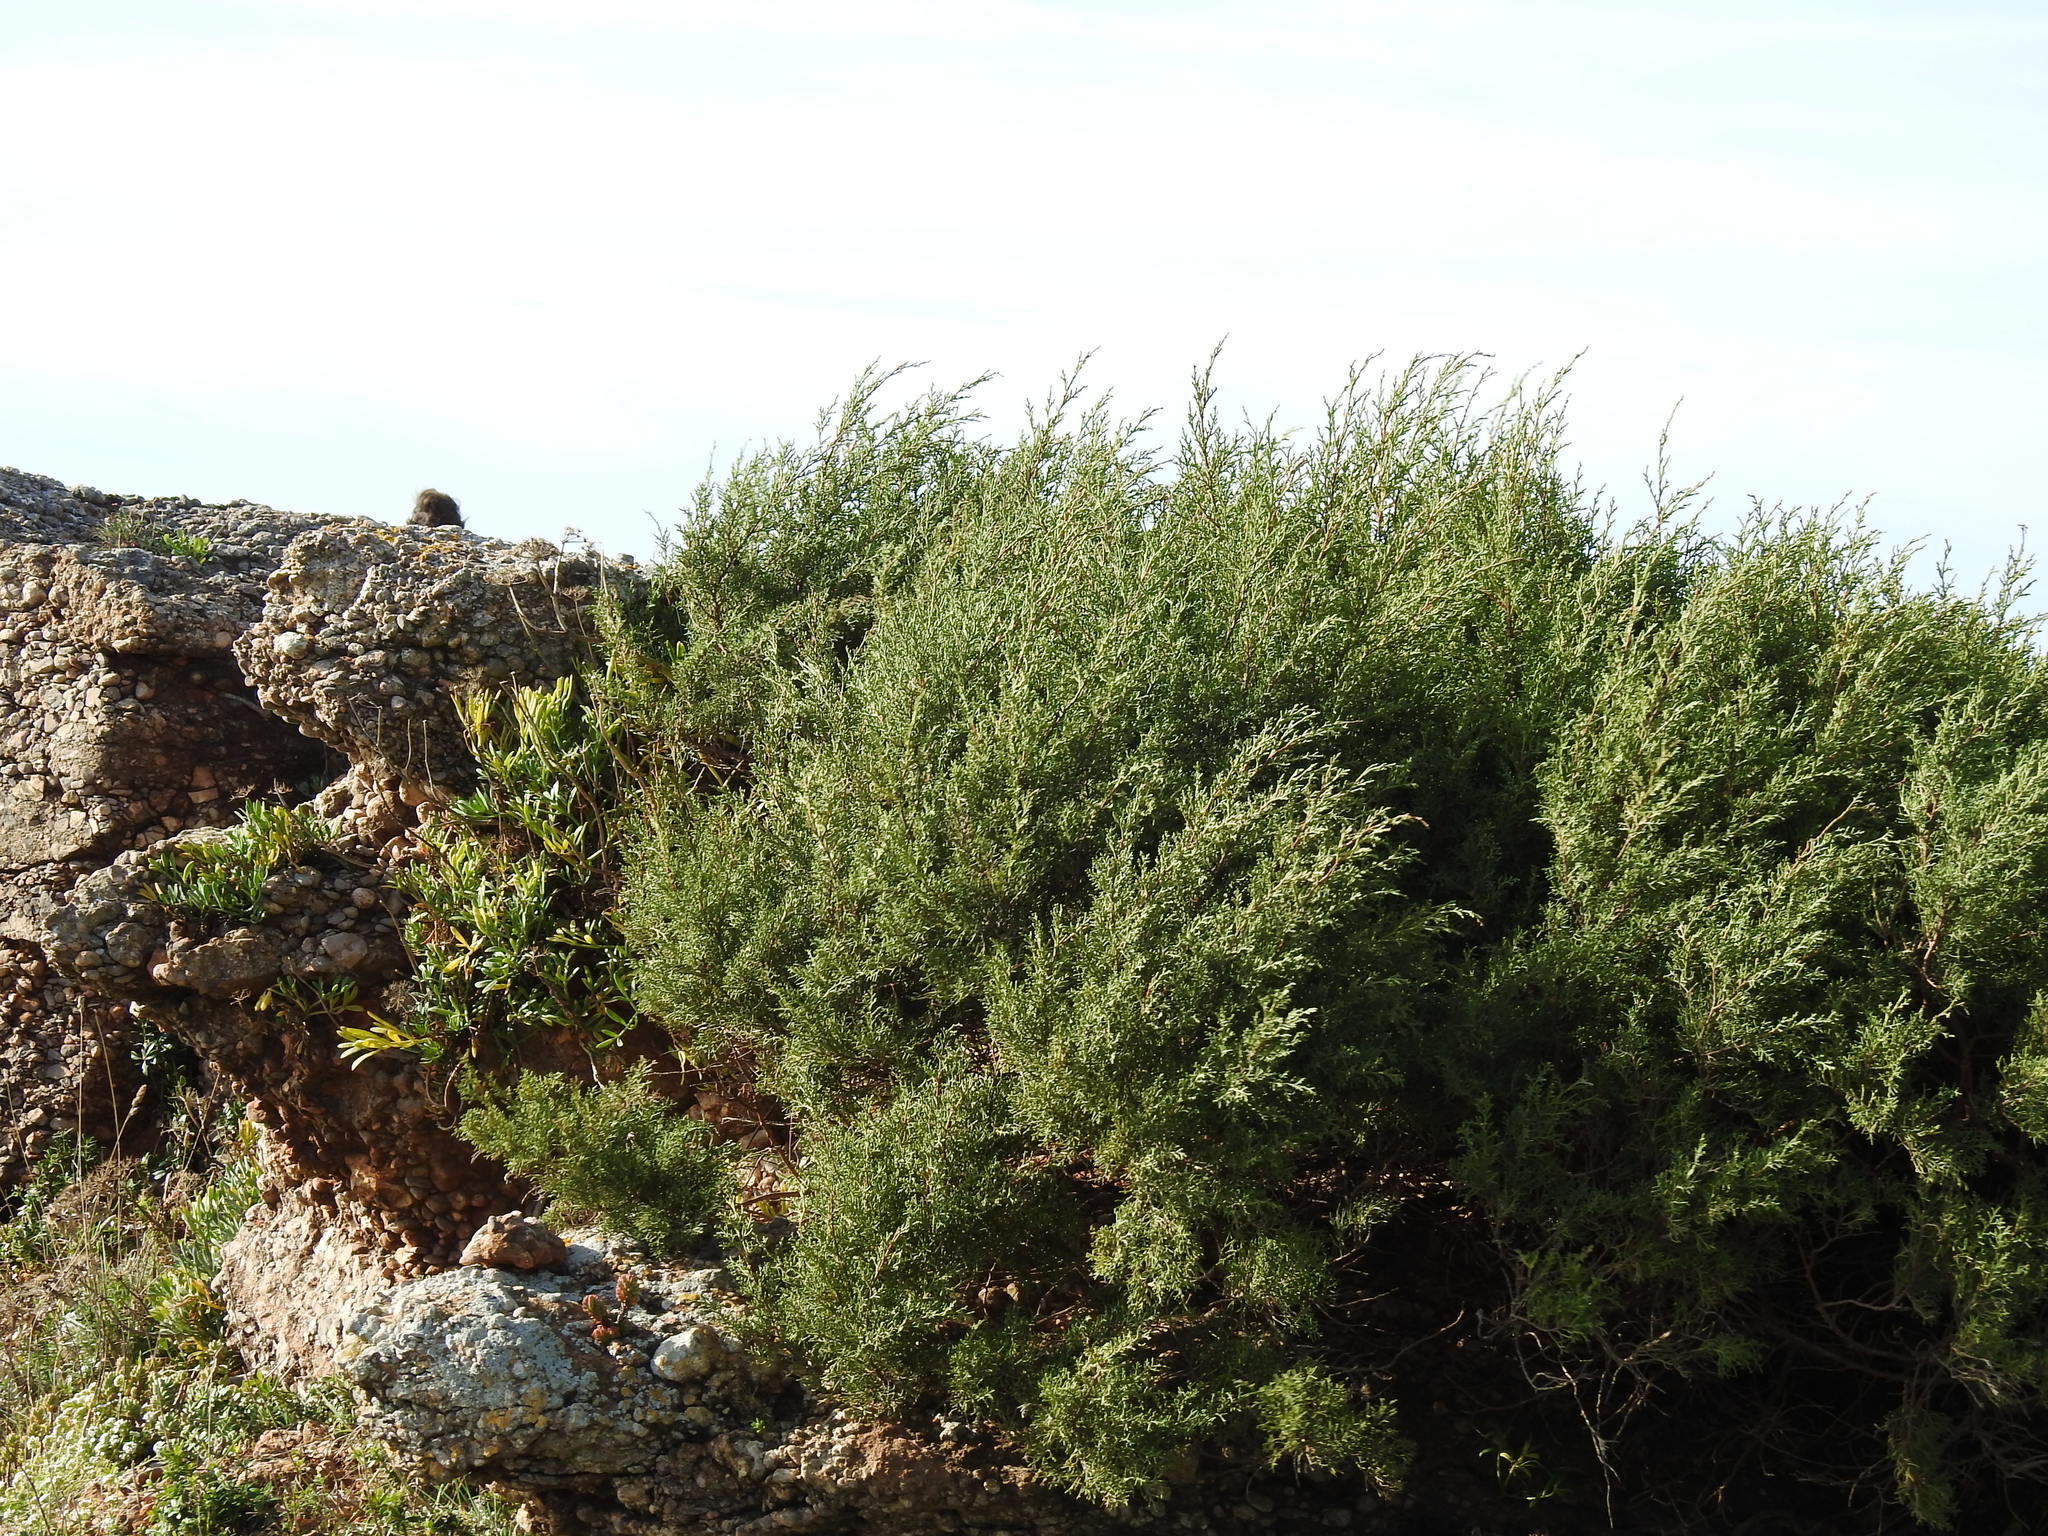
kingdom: Plantae
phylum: Tracheophyta
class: Pinopsida
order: Pinales
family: Cupressaceae
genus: Juniperus
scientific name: Juniperus phoenicea
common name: Phoenician juniper
